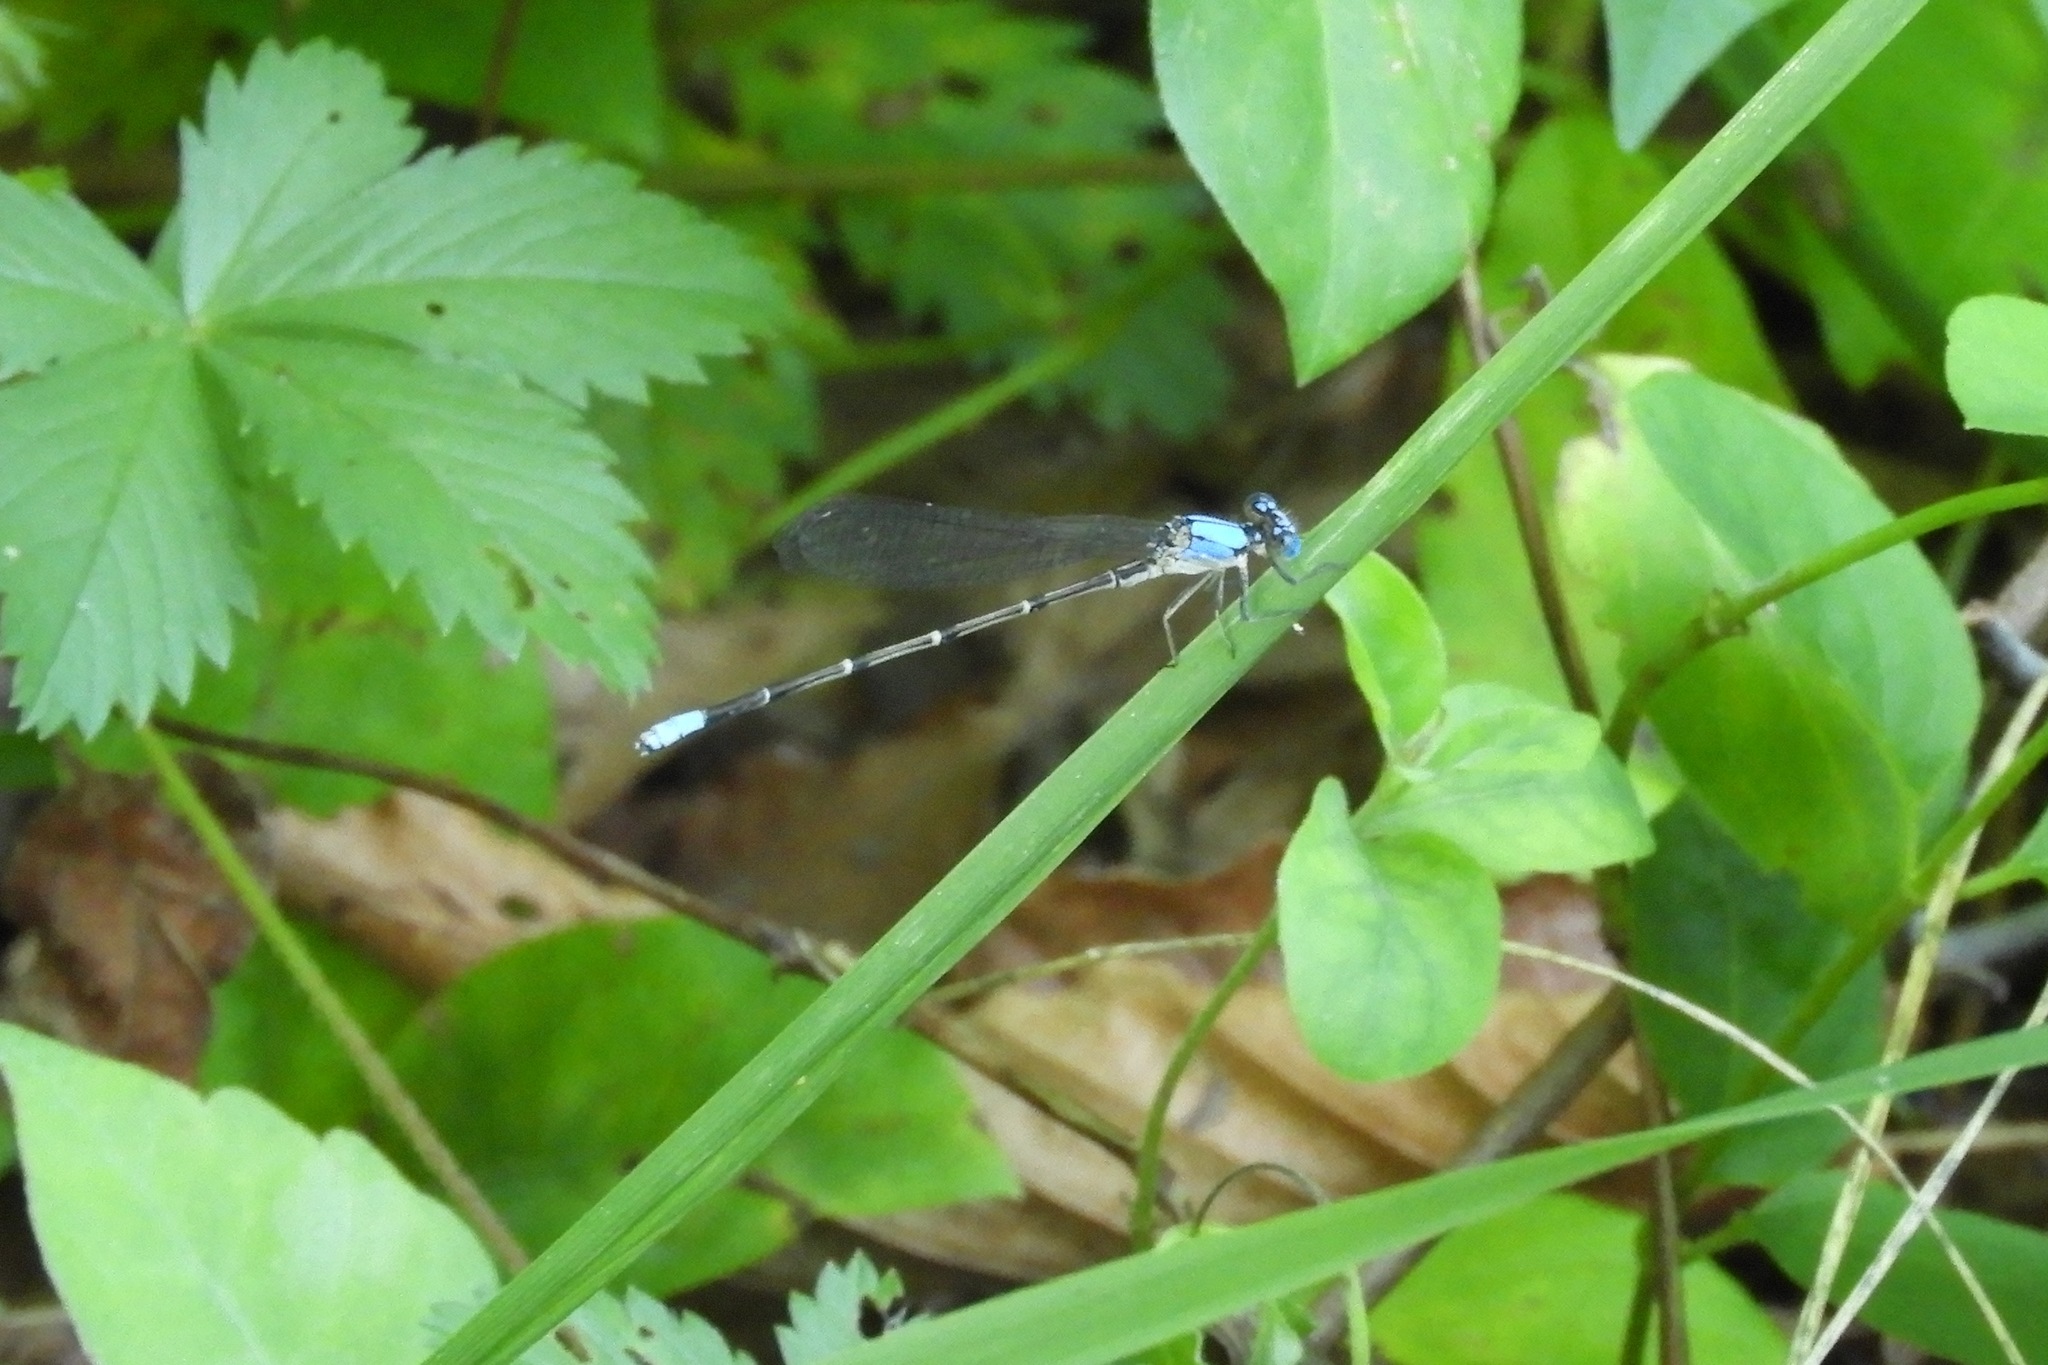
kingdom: Animalia
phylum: Arthropoda
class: Insecta
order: Odonata
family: Coenagrionidae
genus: Argia
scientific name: Argia apicalis
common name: Blue-fronted dancer
